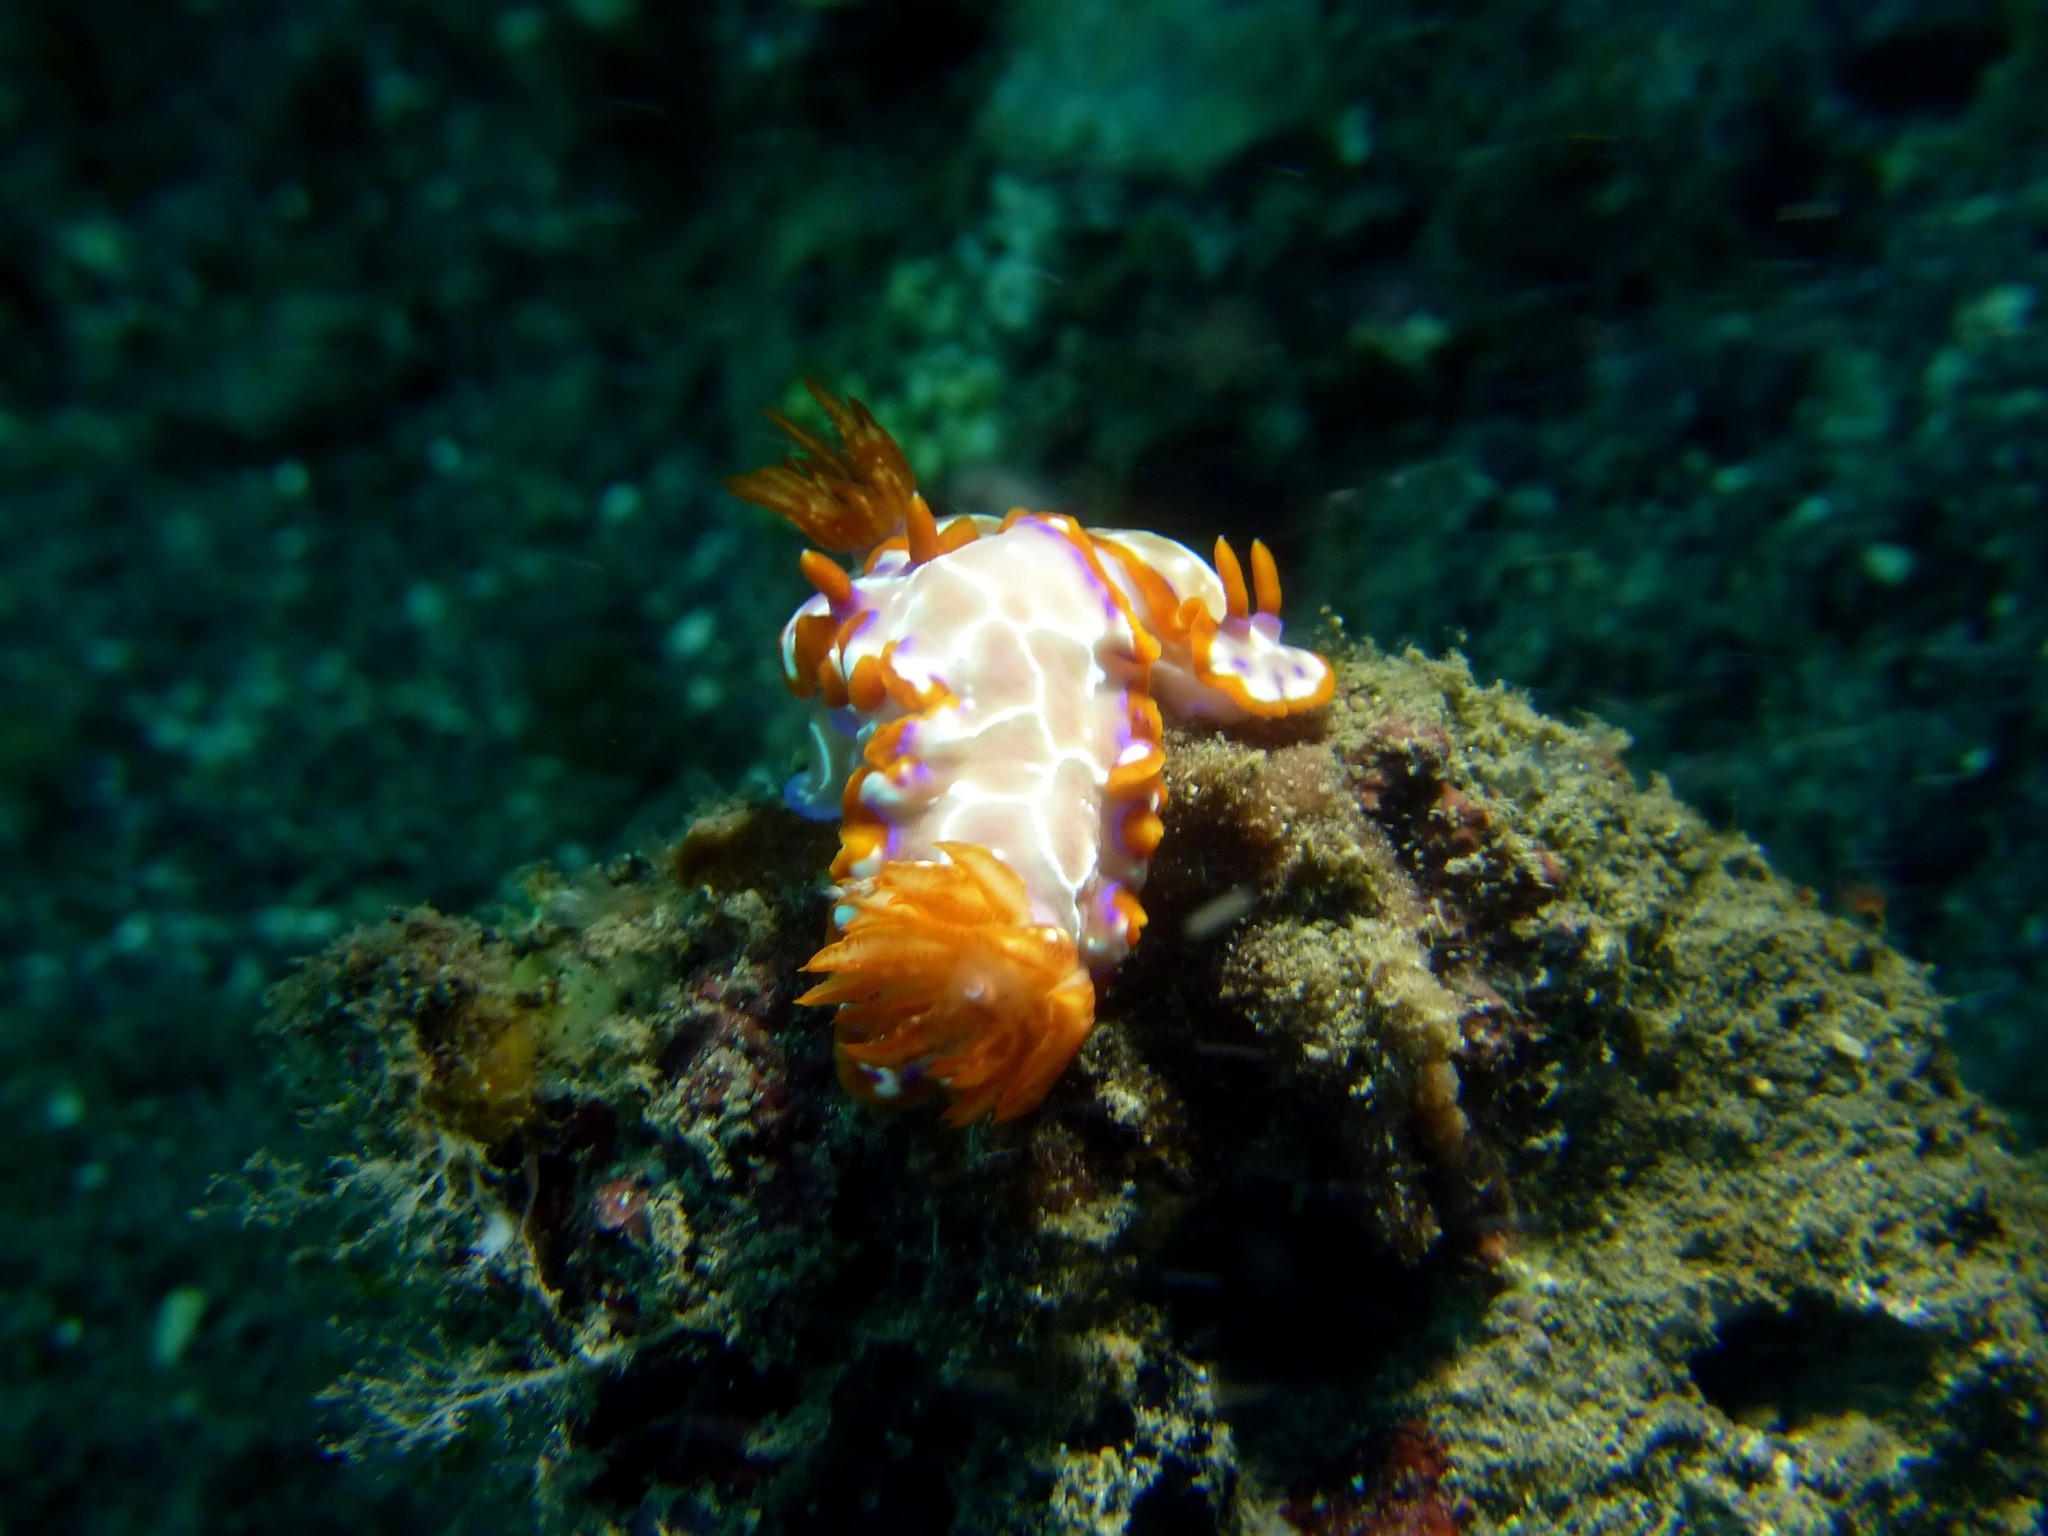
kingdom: Animalia
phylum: Mollusca
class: Gastropoda
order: Nudibranchia
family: Chromodorididae
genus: Hypselodoris
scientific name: Hypselodoris iacula
